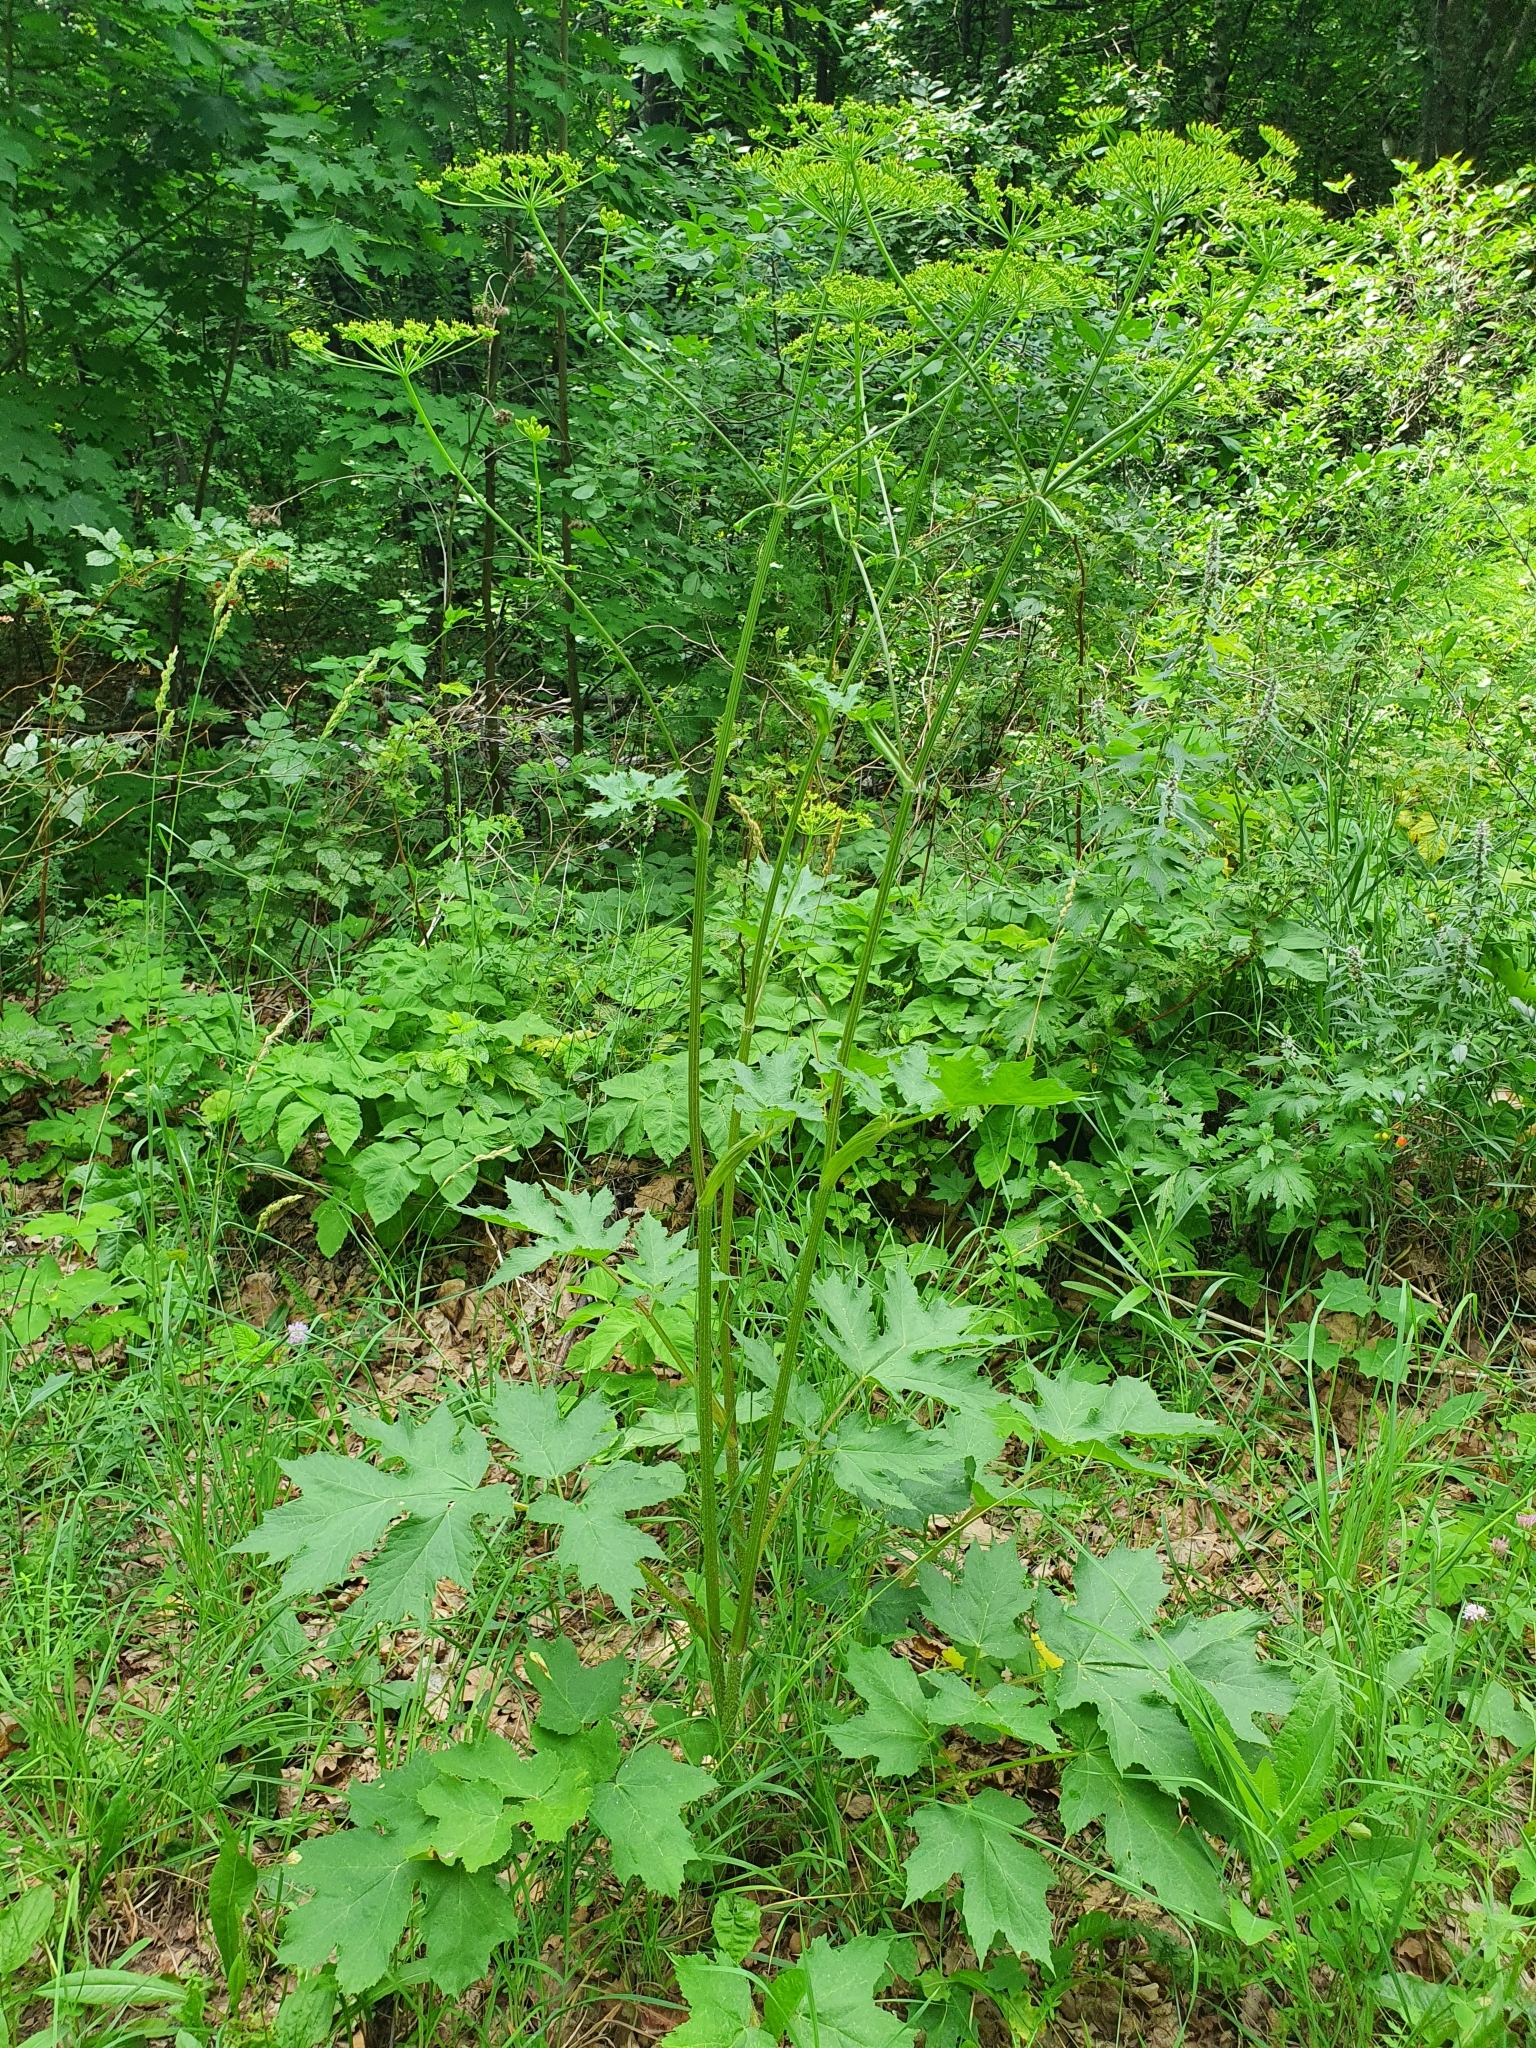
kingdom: Plantae
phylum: Tracheophyta
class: Magnoliopsida
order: Apiales
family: Apiaceae
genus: Heracleum
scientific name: Heracleum sphondylium
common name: Hogweed
